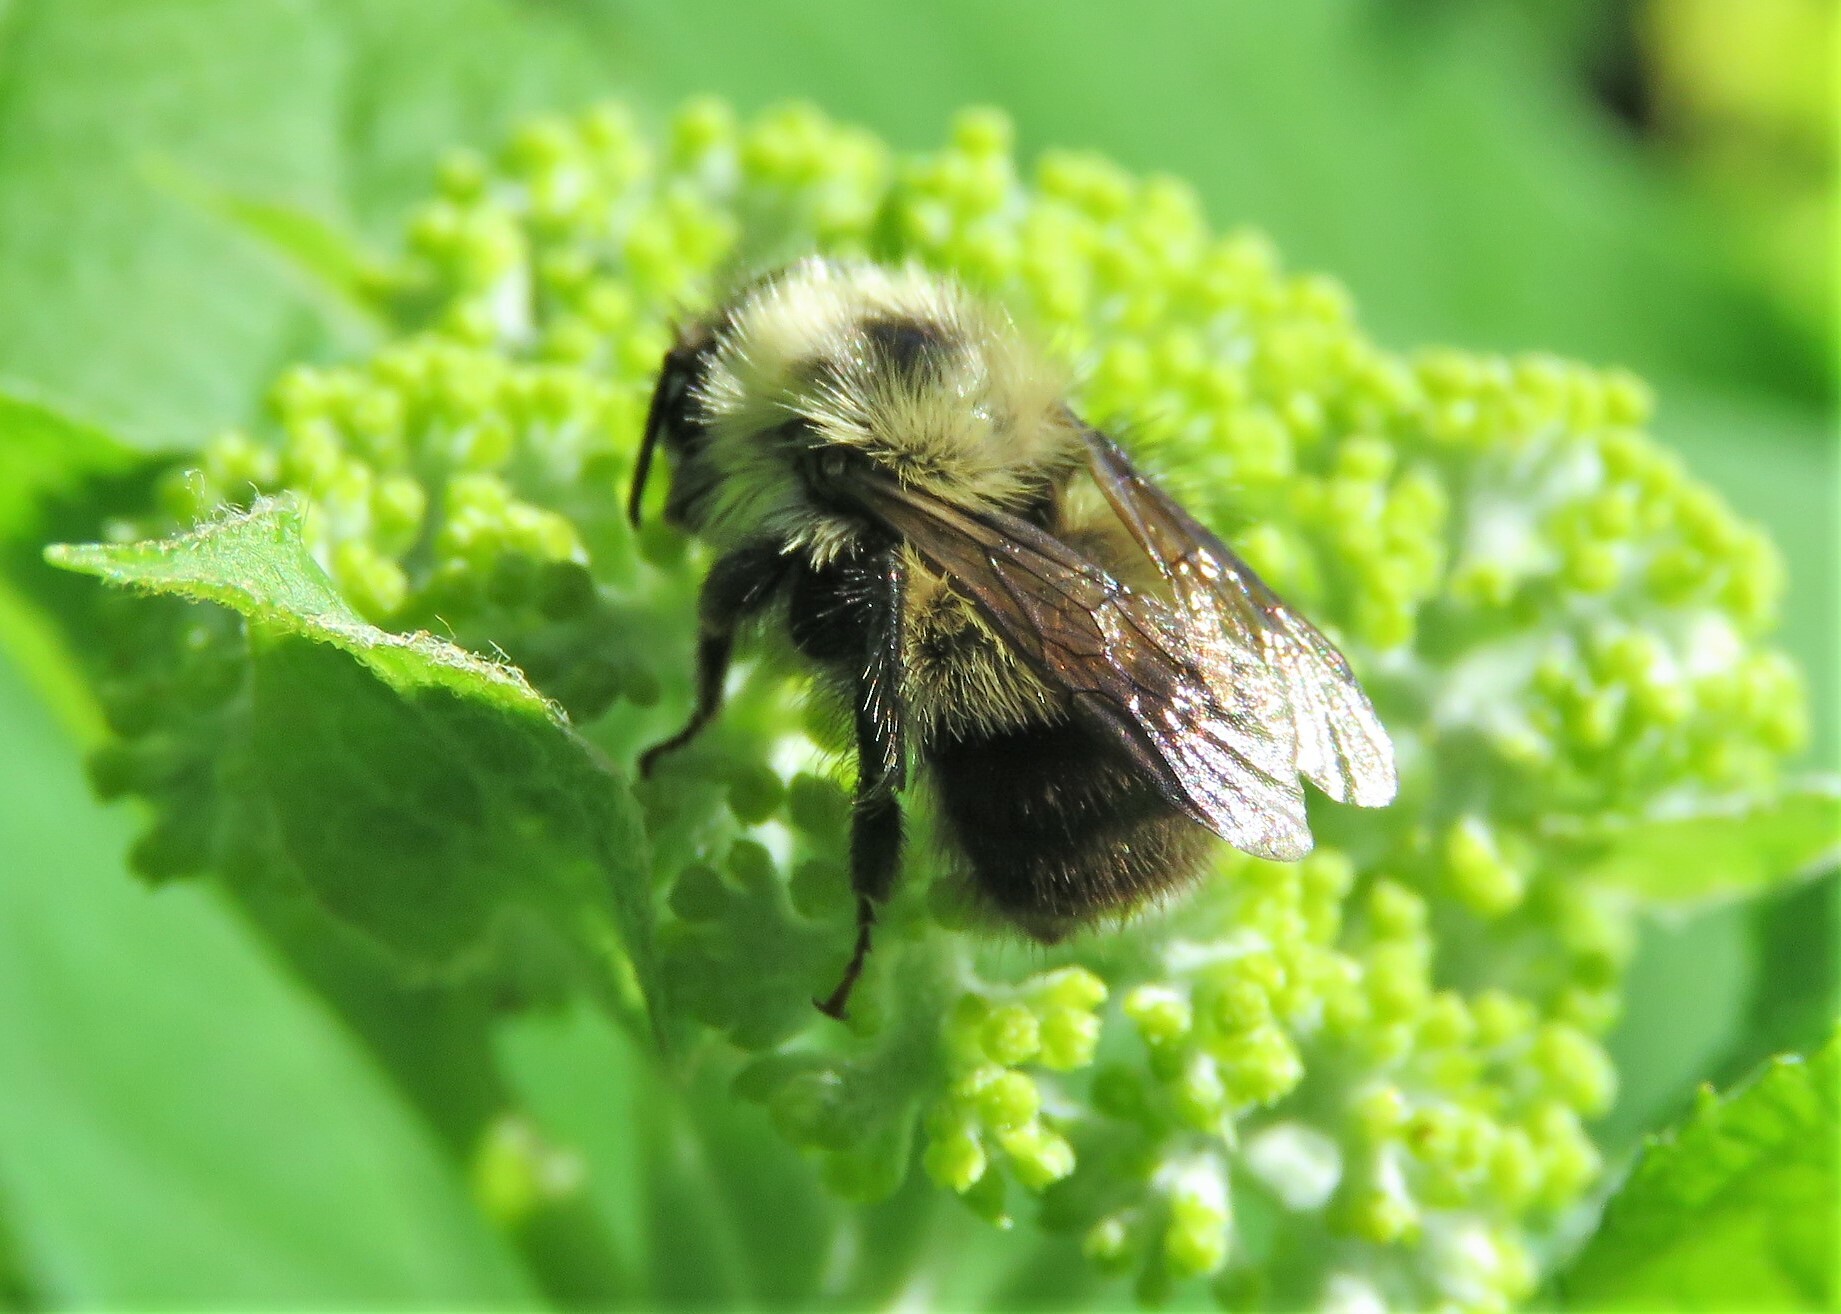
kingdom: Animalia
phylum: Arthropoda
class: Insecta
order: Hymenoptera
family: Apidae
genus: Pyrobombus
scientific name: Pyrobombus
